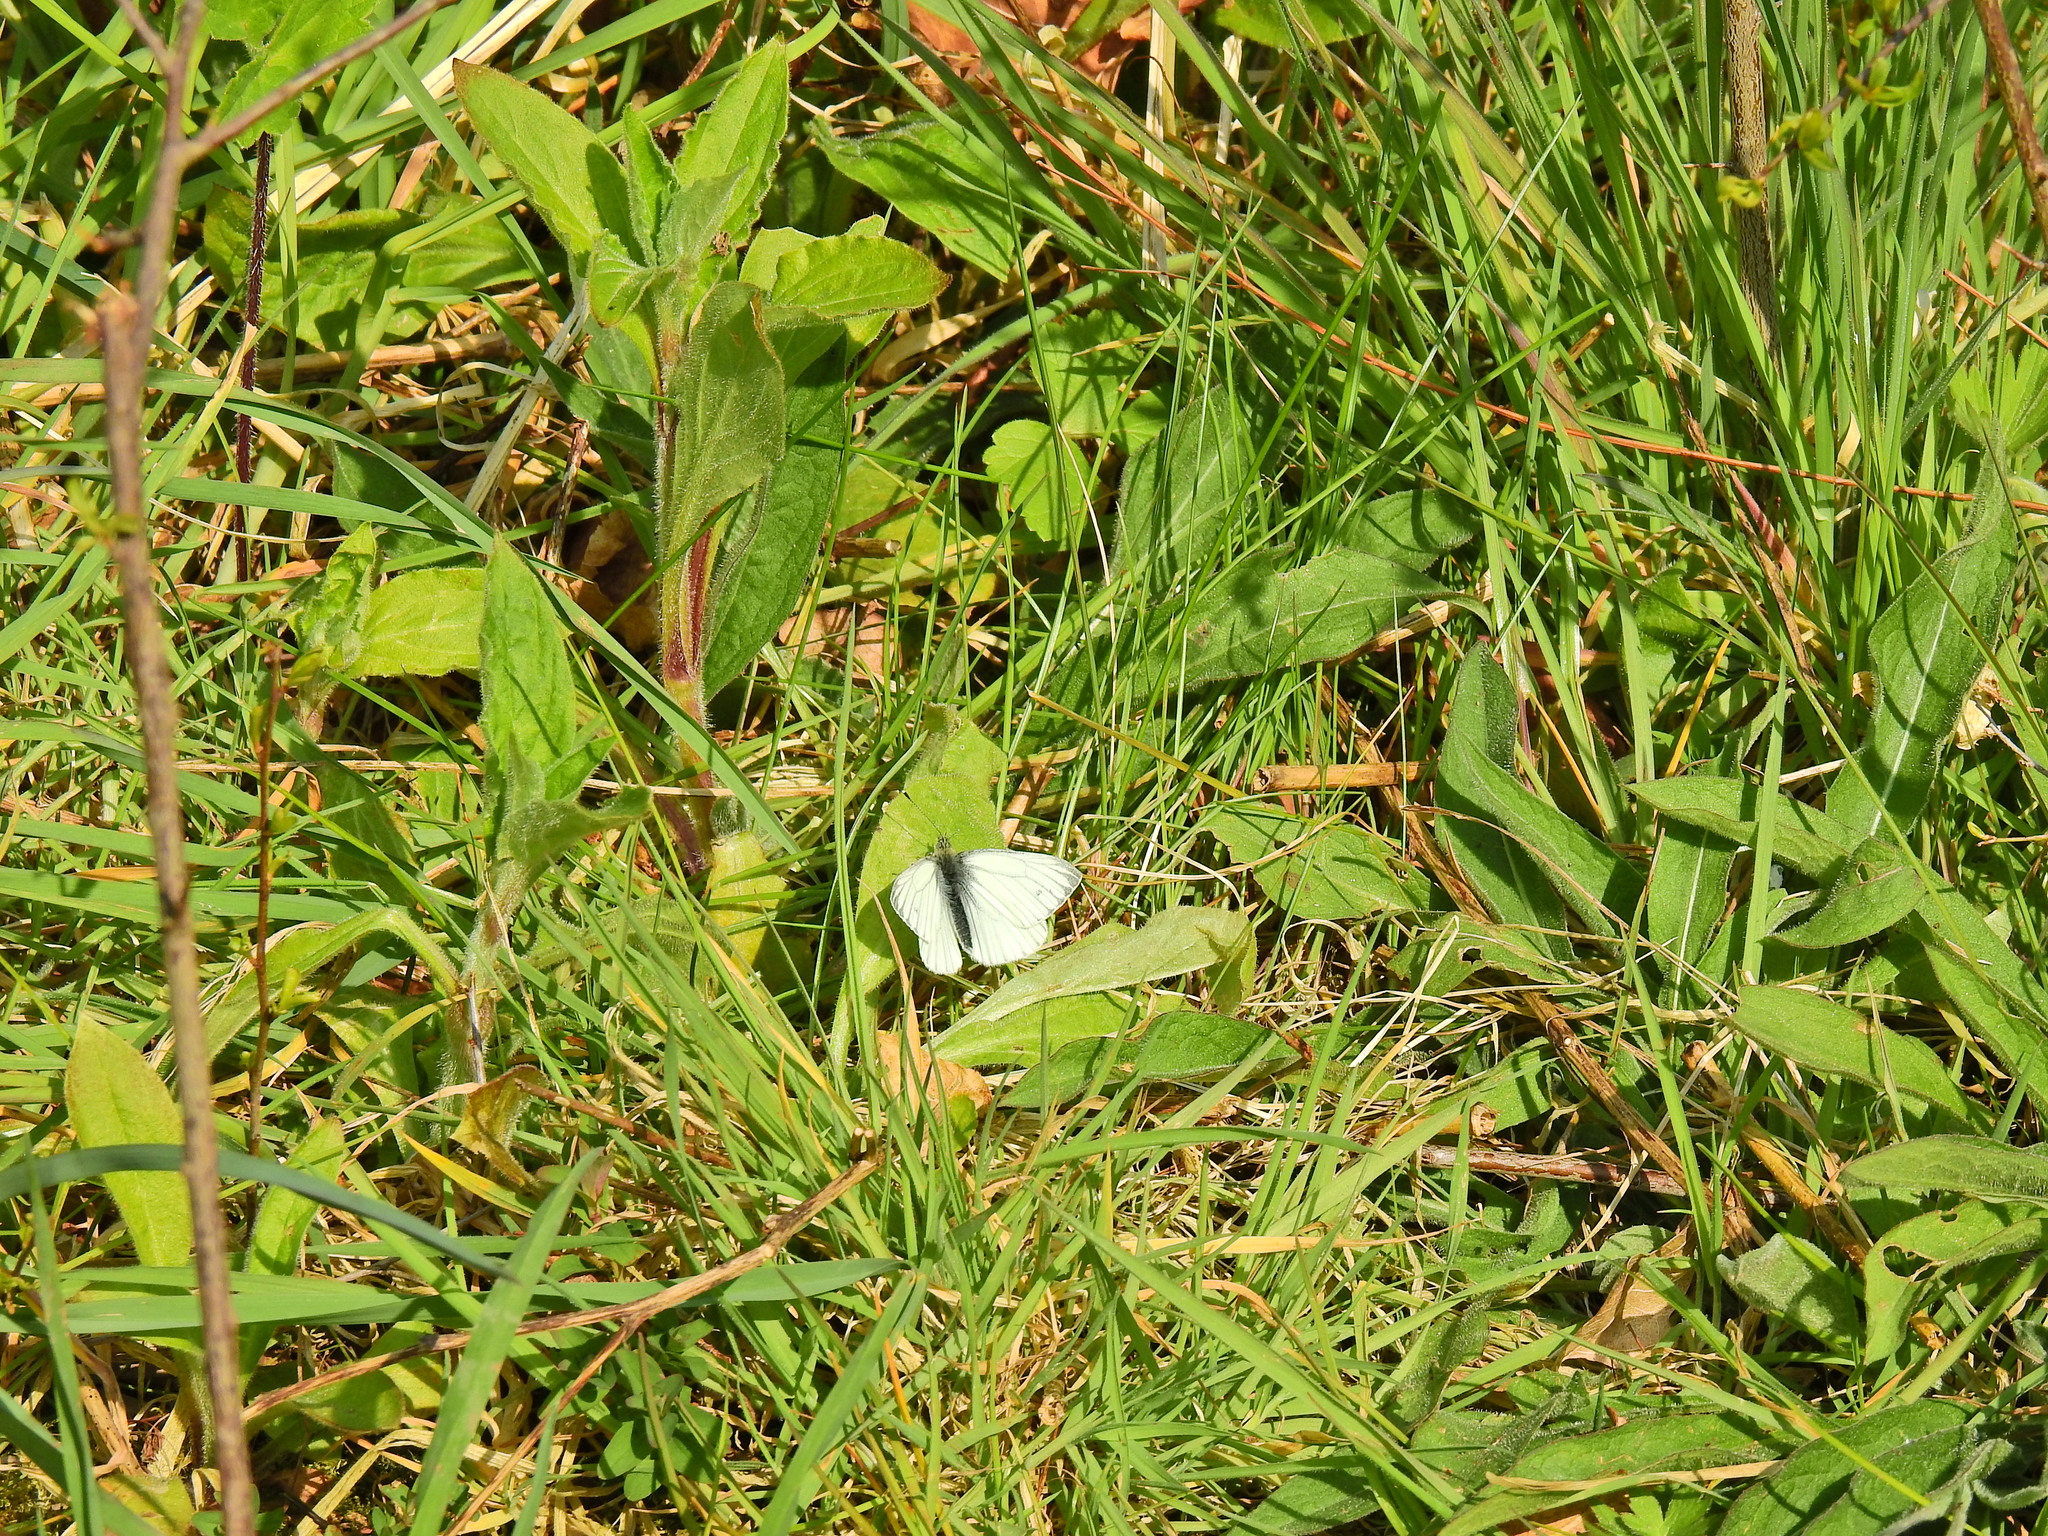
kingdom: Animalia
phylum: Arthropoda
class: Insecta
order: Lepidoptera
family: Pieridae
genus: Pieris
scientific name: Pieris napi
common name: Green-veined white
